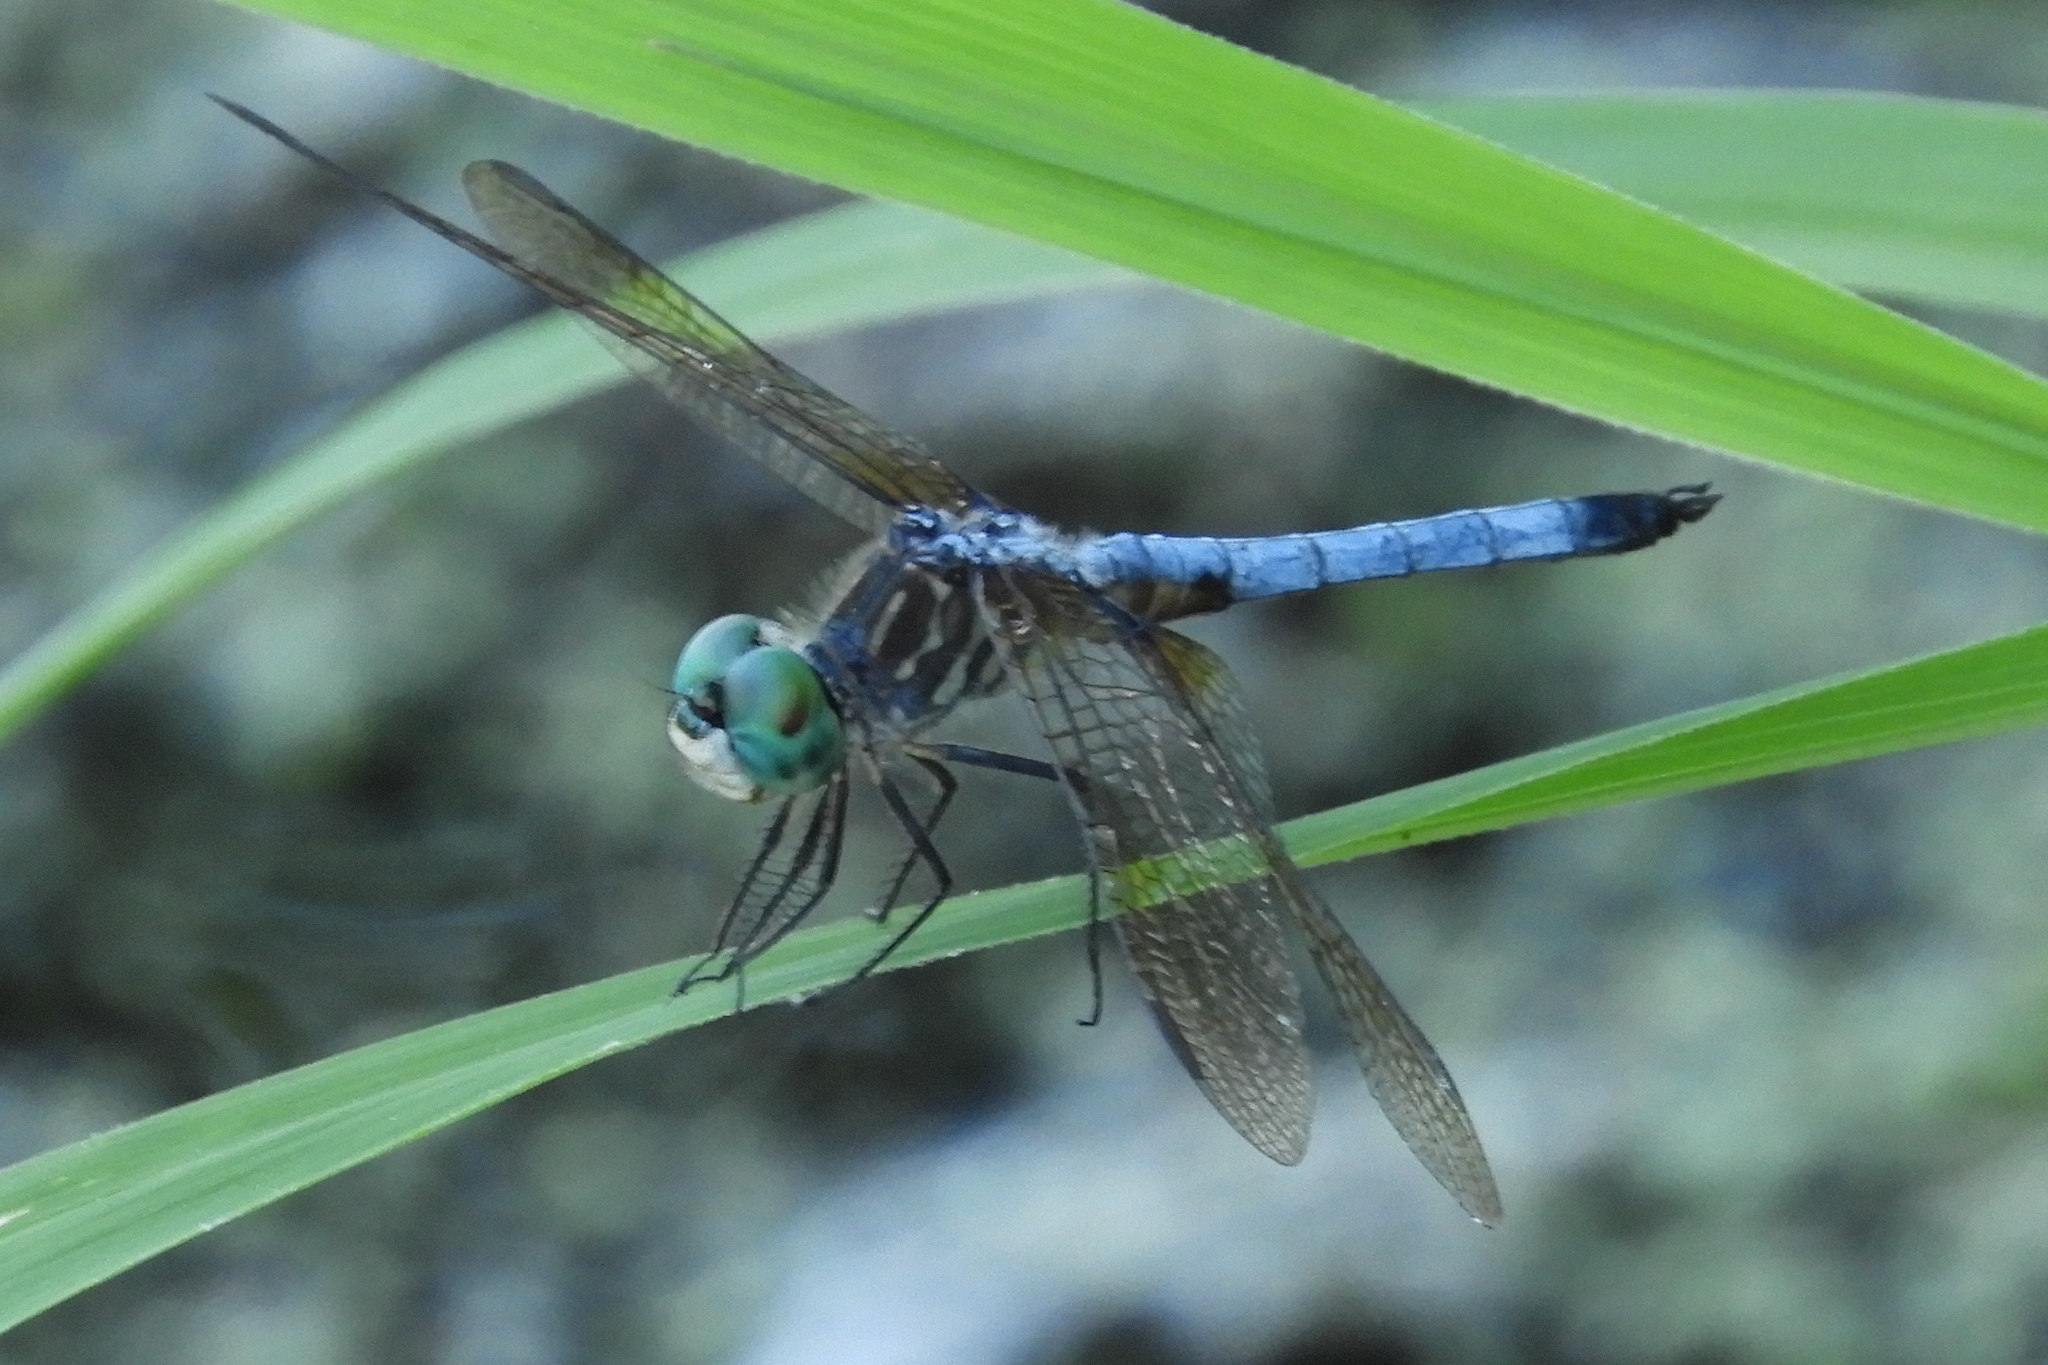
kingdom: Animalia
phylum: Arthropoda
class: Insecta
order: Odonata
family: Libellulidae
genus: Pachydiplax
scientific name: Pachydiplax longipennis
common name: Blue dasher
